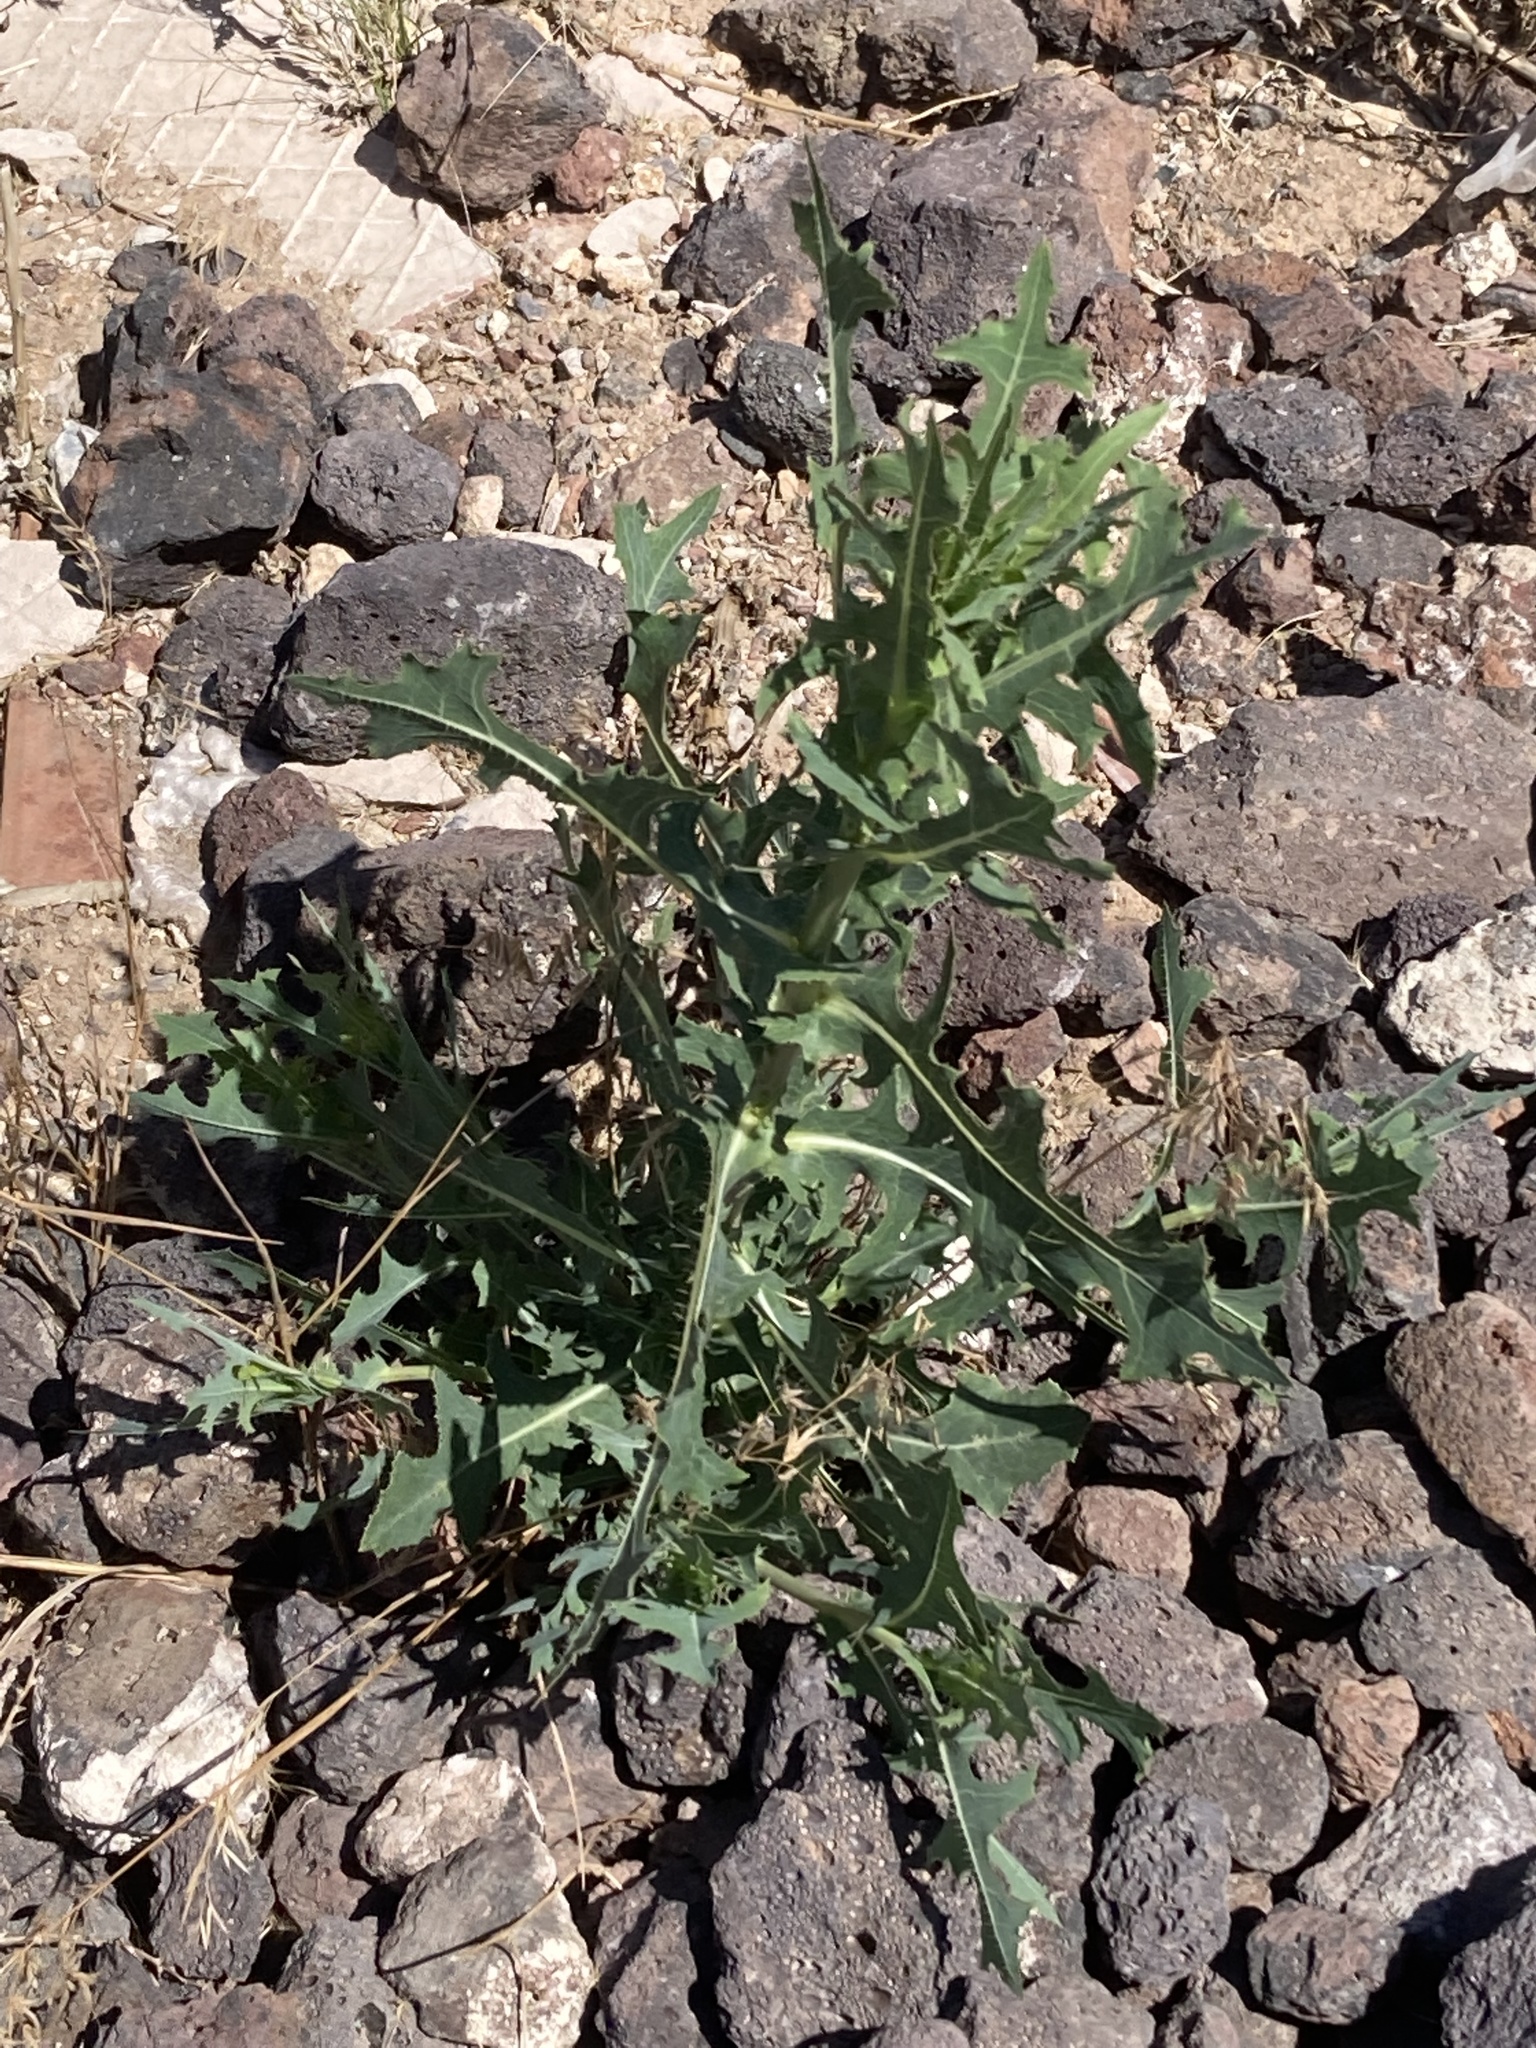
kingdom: Plantae
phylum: Tracheophyta
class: Magnoliopsida
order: Asterales
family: Asteraceae
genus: Lactuca
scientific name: Lactuca serriola
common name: Prickly lettuce
